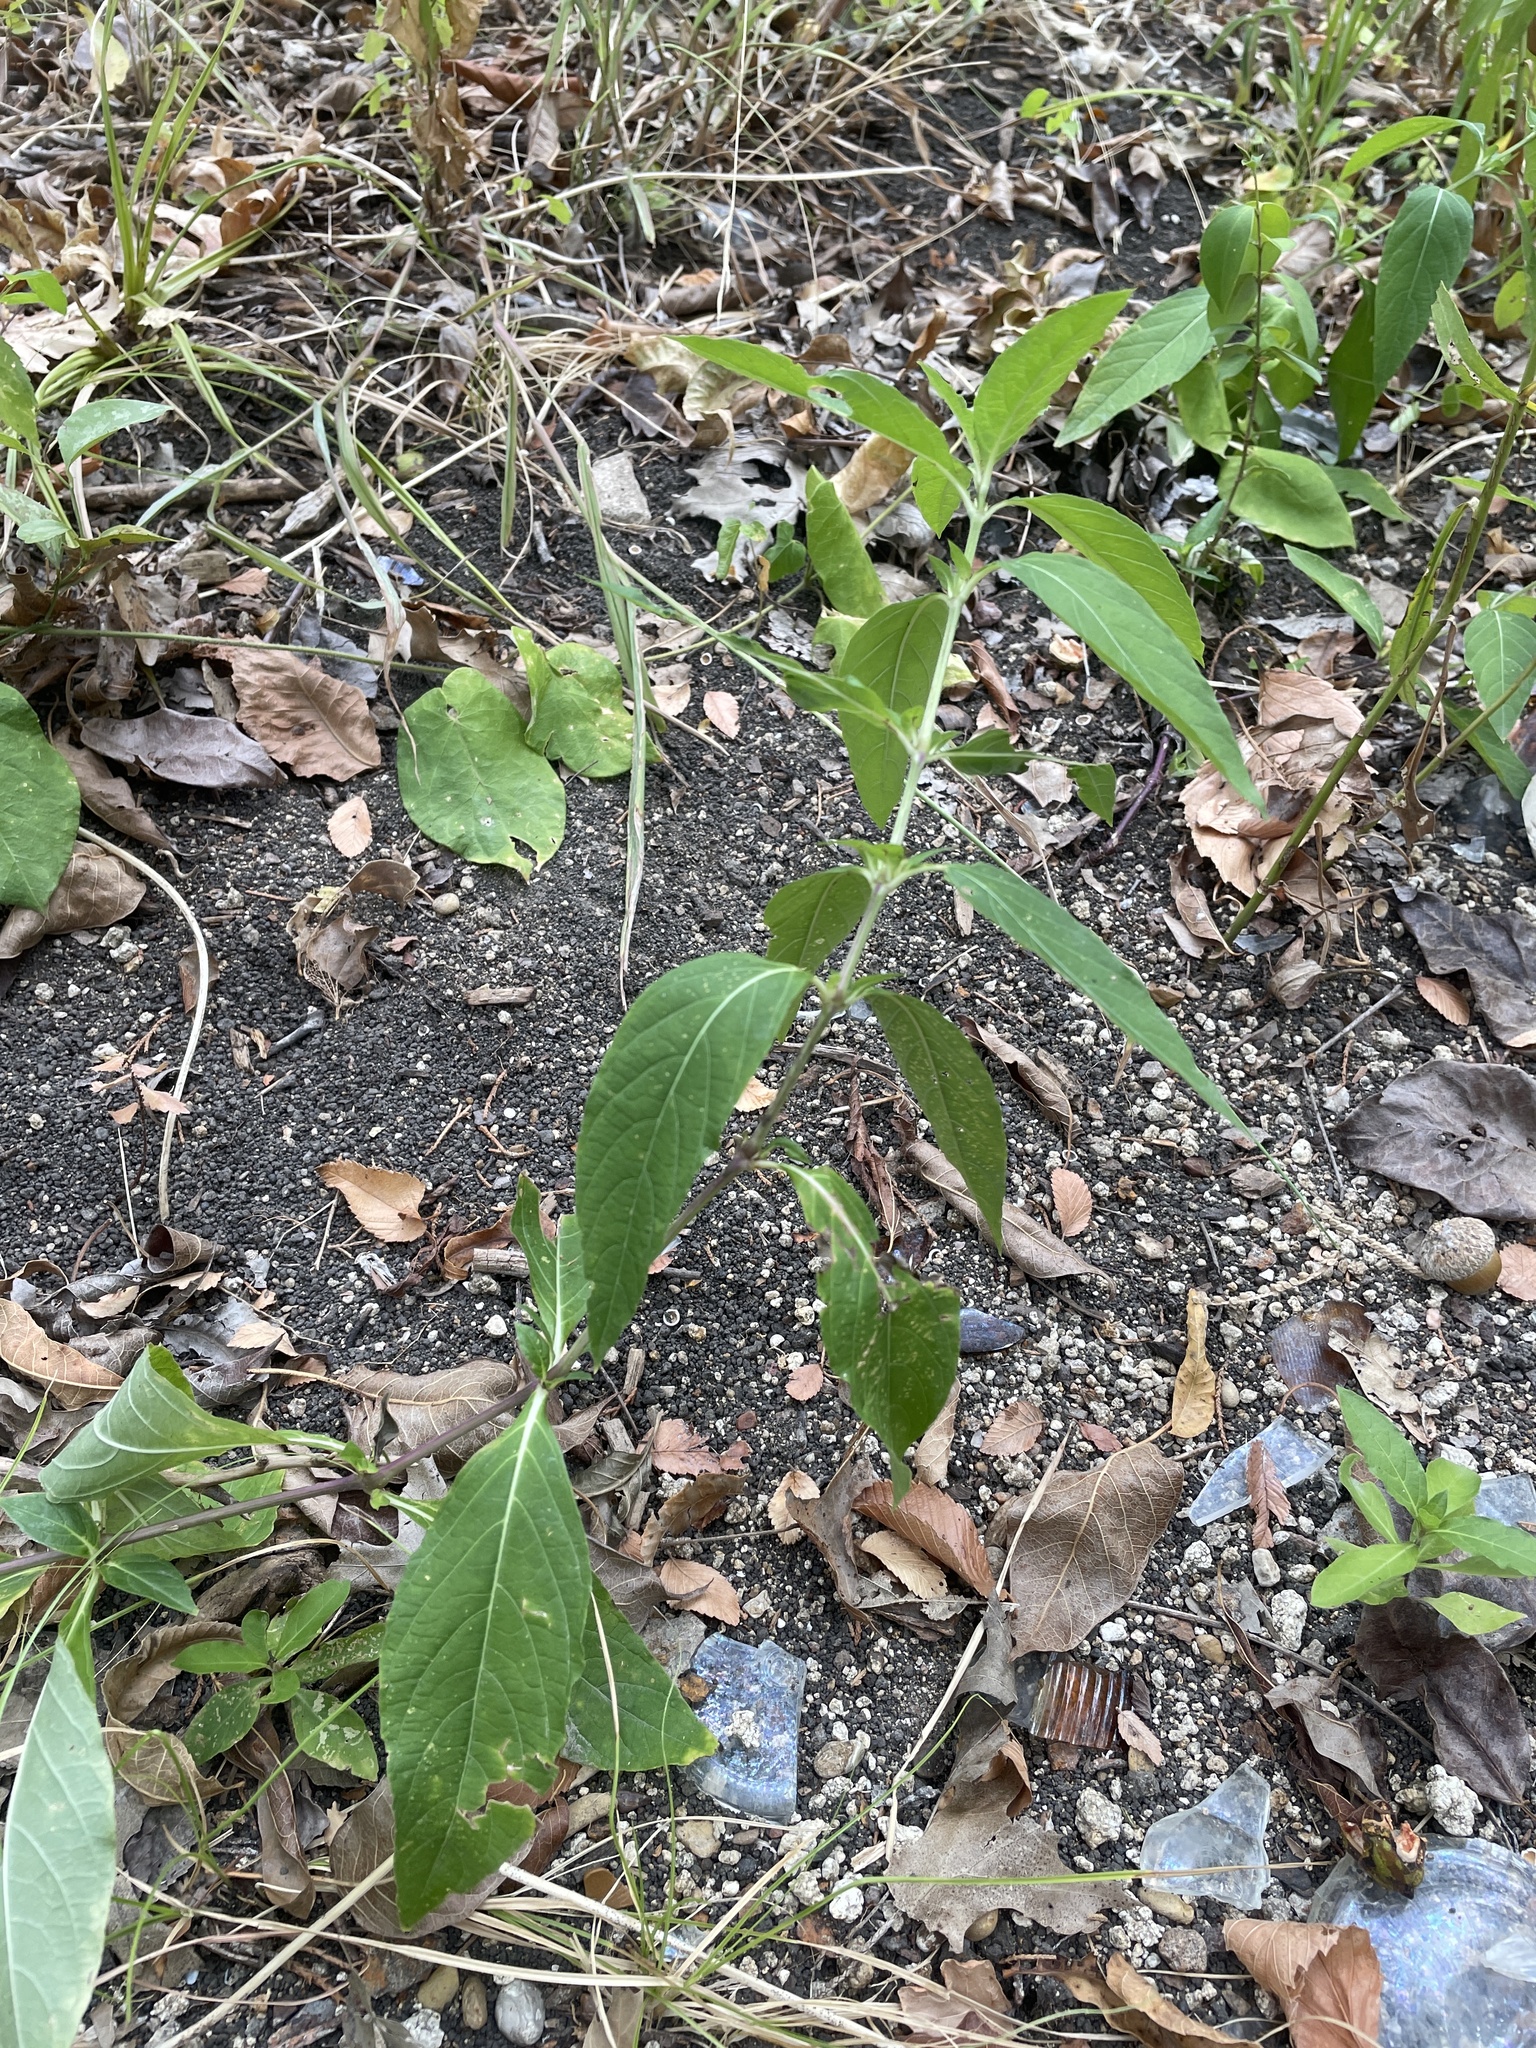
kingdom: Plantae
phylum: Tracheophyta
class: Magnoliopsida
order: Lamiales
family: Acanthaceae
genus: Ruellia
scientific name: Ruellia strepens
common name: Limestone wild petunia
